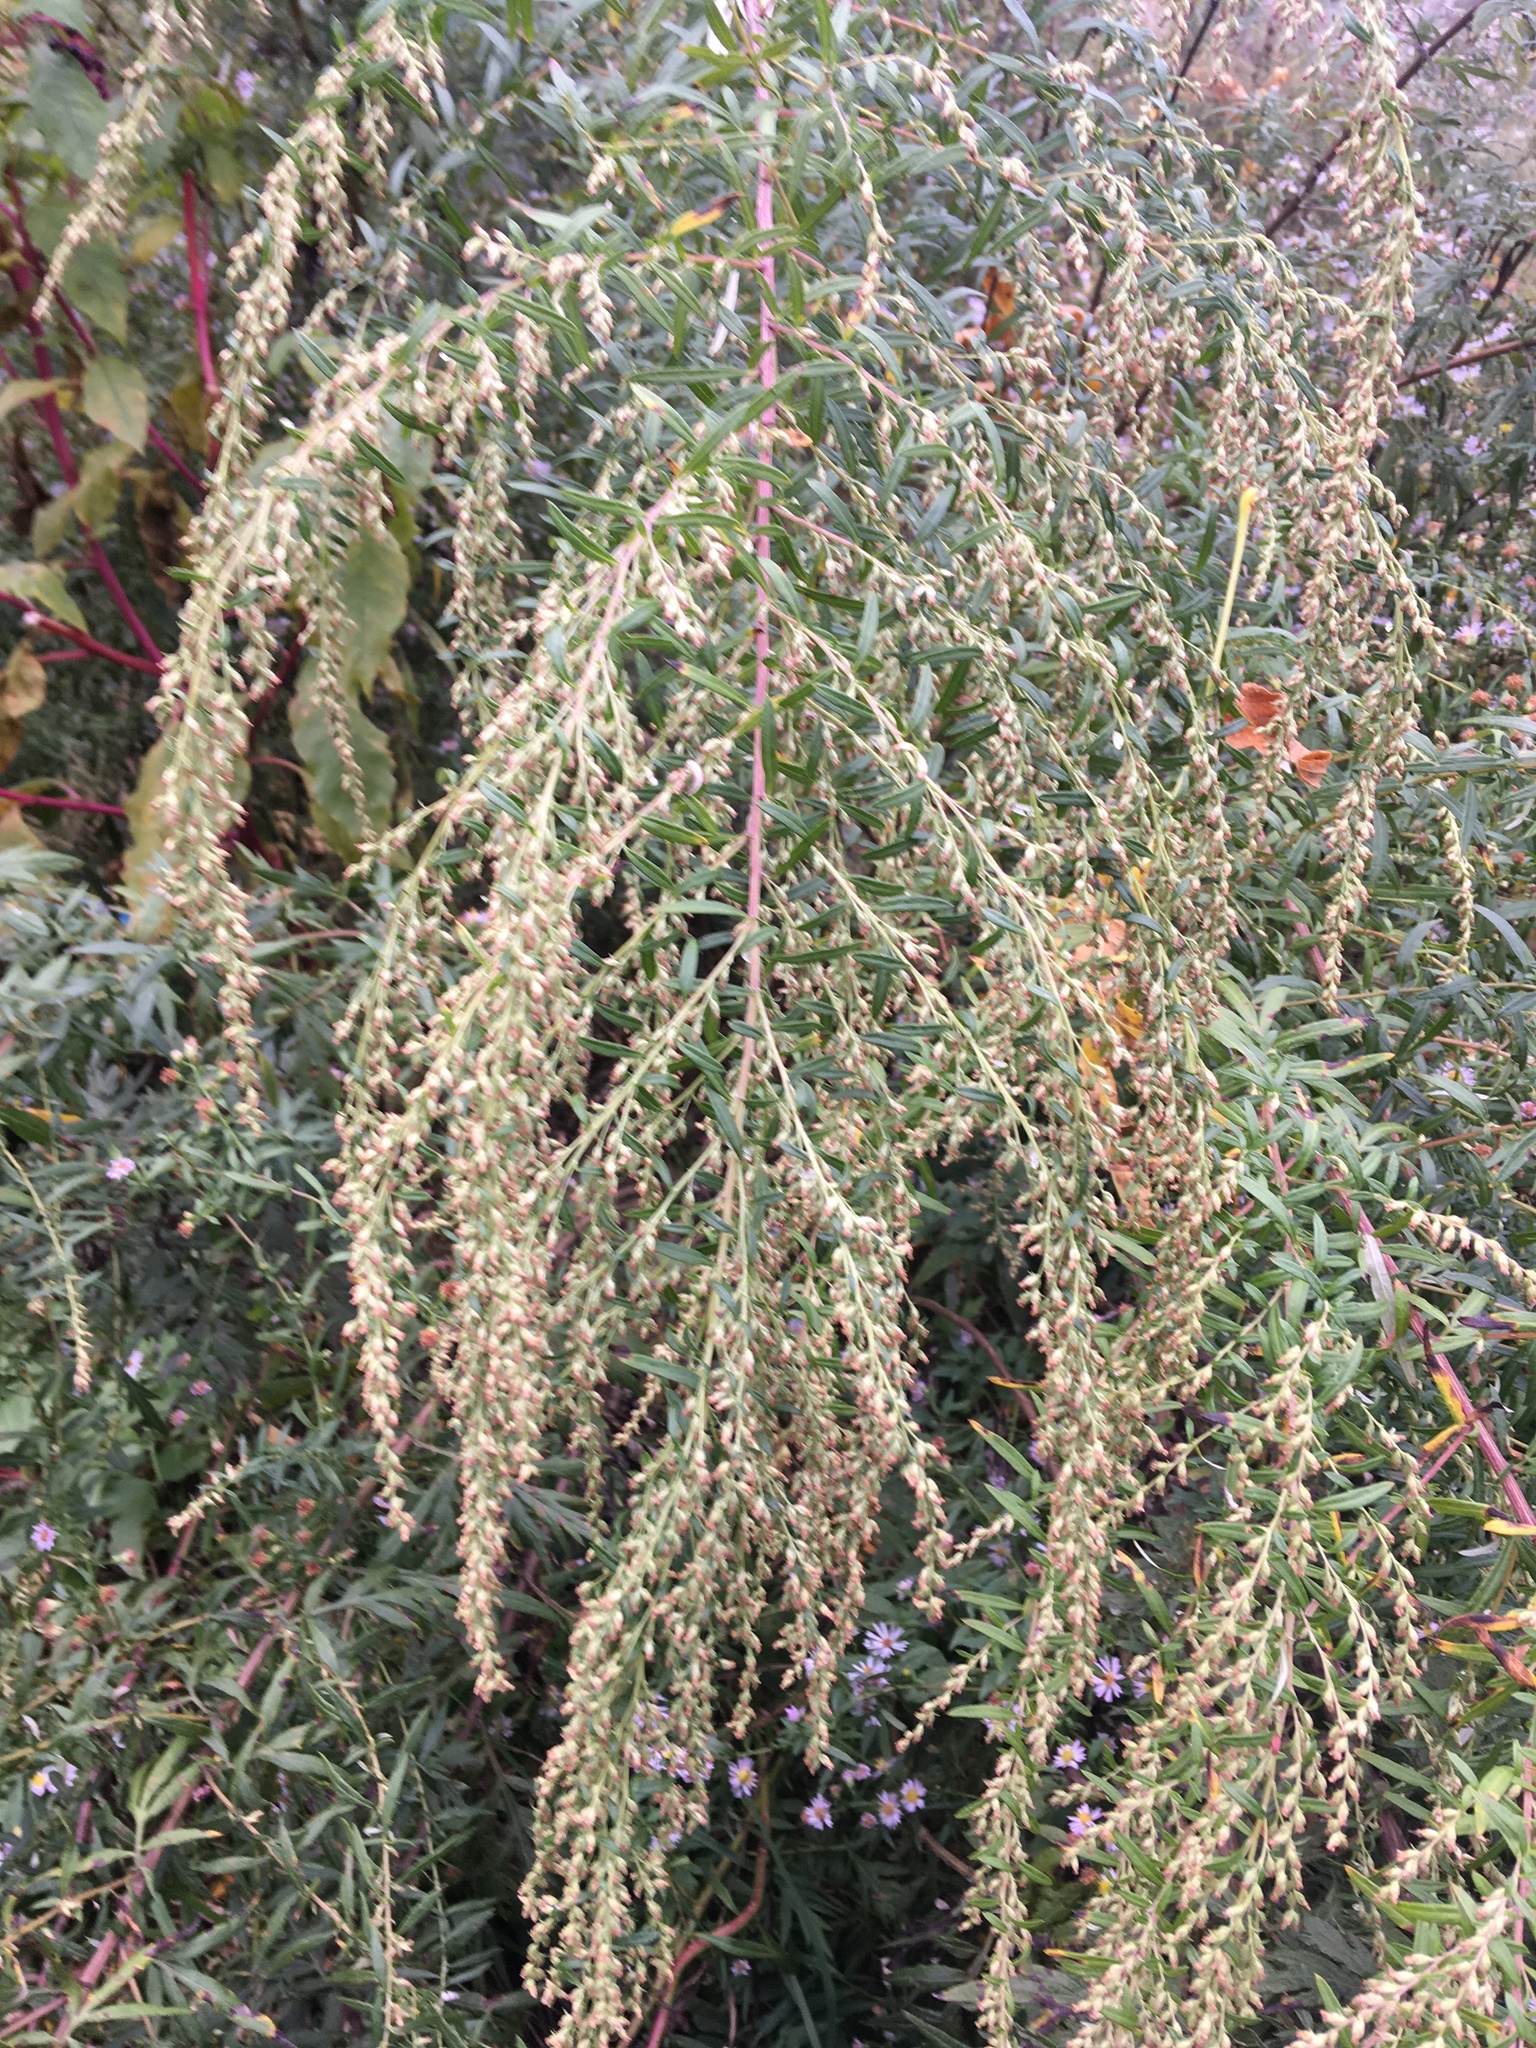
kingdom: Plantae
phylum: Tracheophyta
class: Magnoliopsida
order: Asterales
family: Asteraceae
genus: Artemisia
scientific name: Artemisia vulgaris
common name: Mugwort
